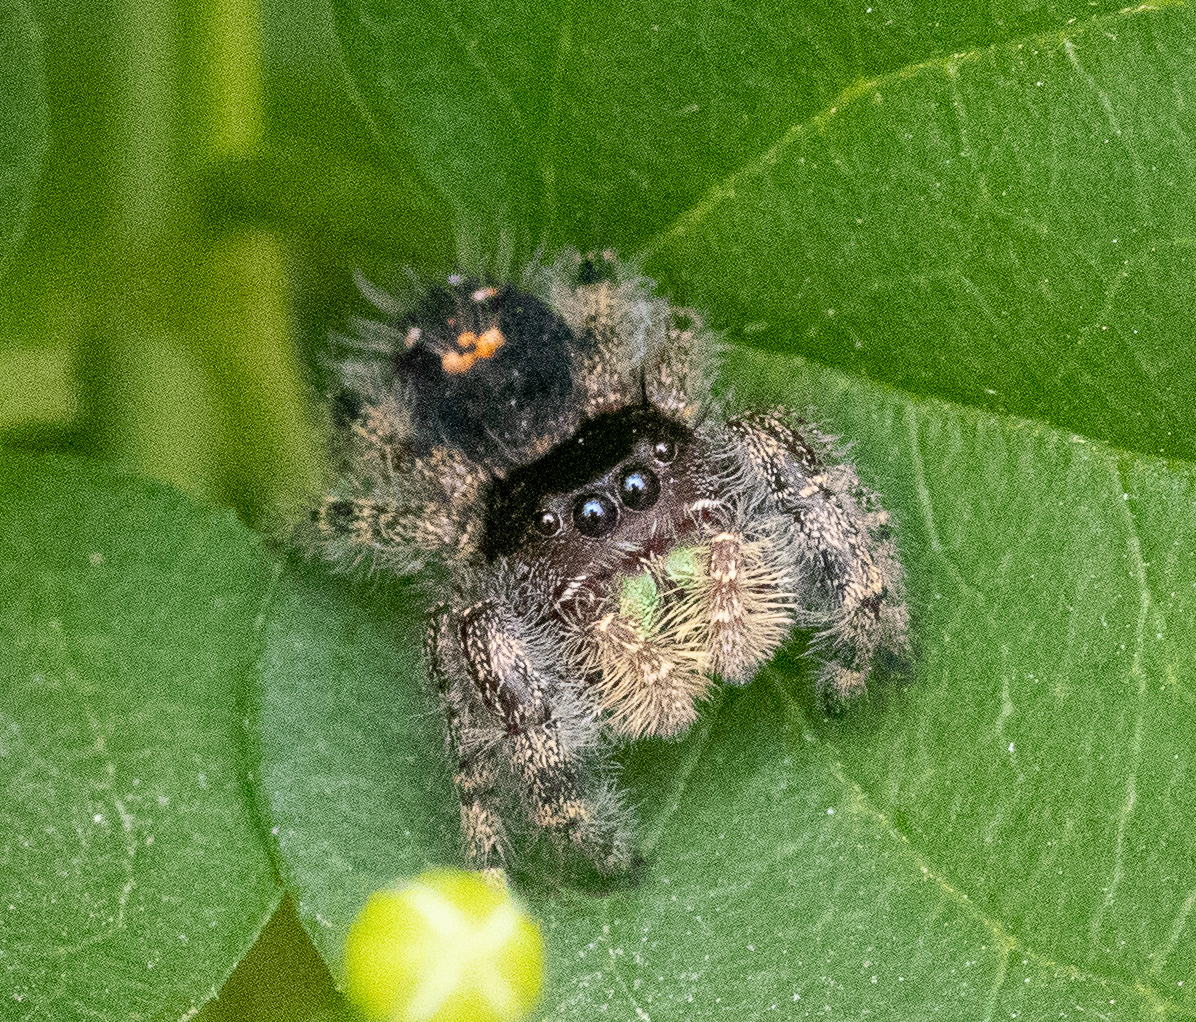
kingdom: Animalia
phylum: Arthropoda
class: Arachnida
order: Araneae
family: Salticidae
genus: Phidippus
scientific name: Phidippus audax
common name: Bold jumper
